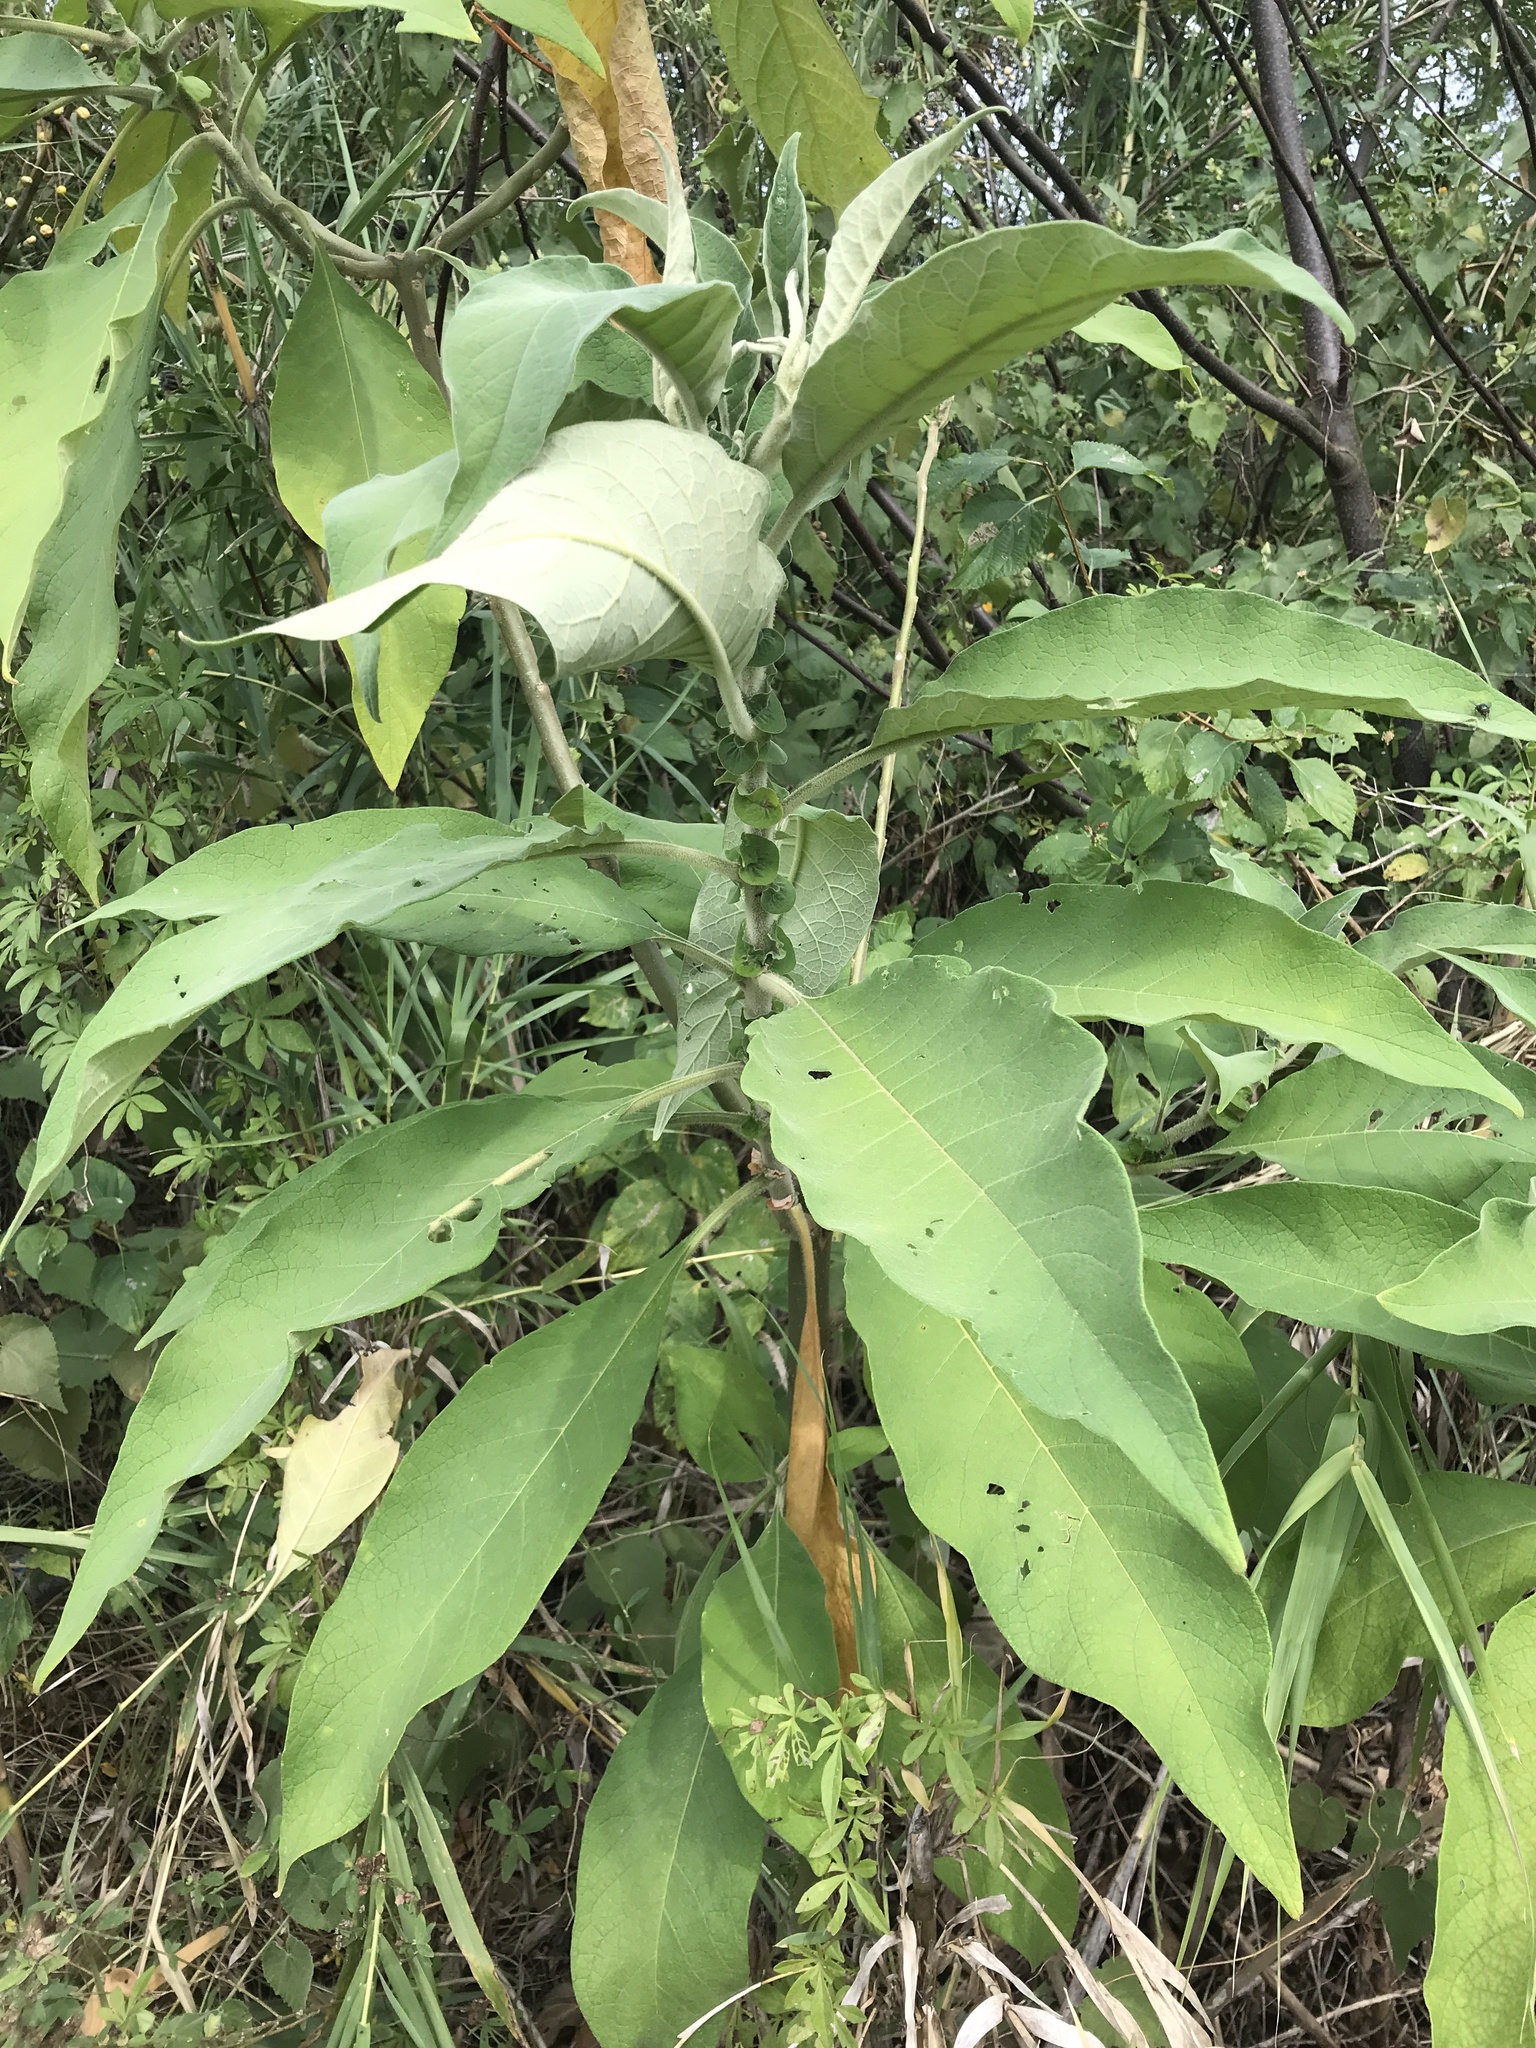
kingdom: Plantae
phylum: Tracheophyta
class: Magnoliopsida
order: Solanales
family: Solanaceae
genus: Solanum
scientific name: Solanum mauritianum
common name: Earleaf nightshade
